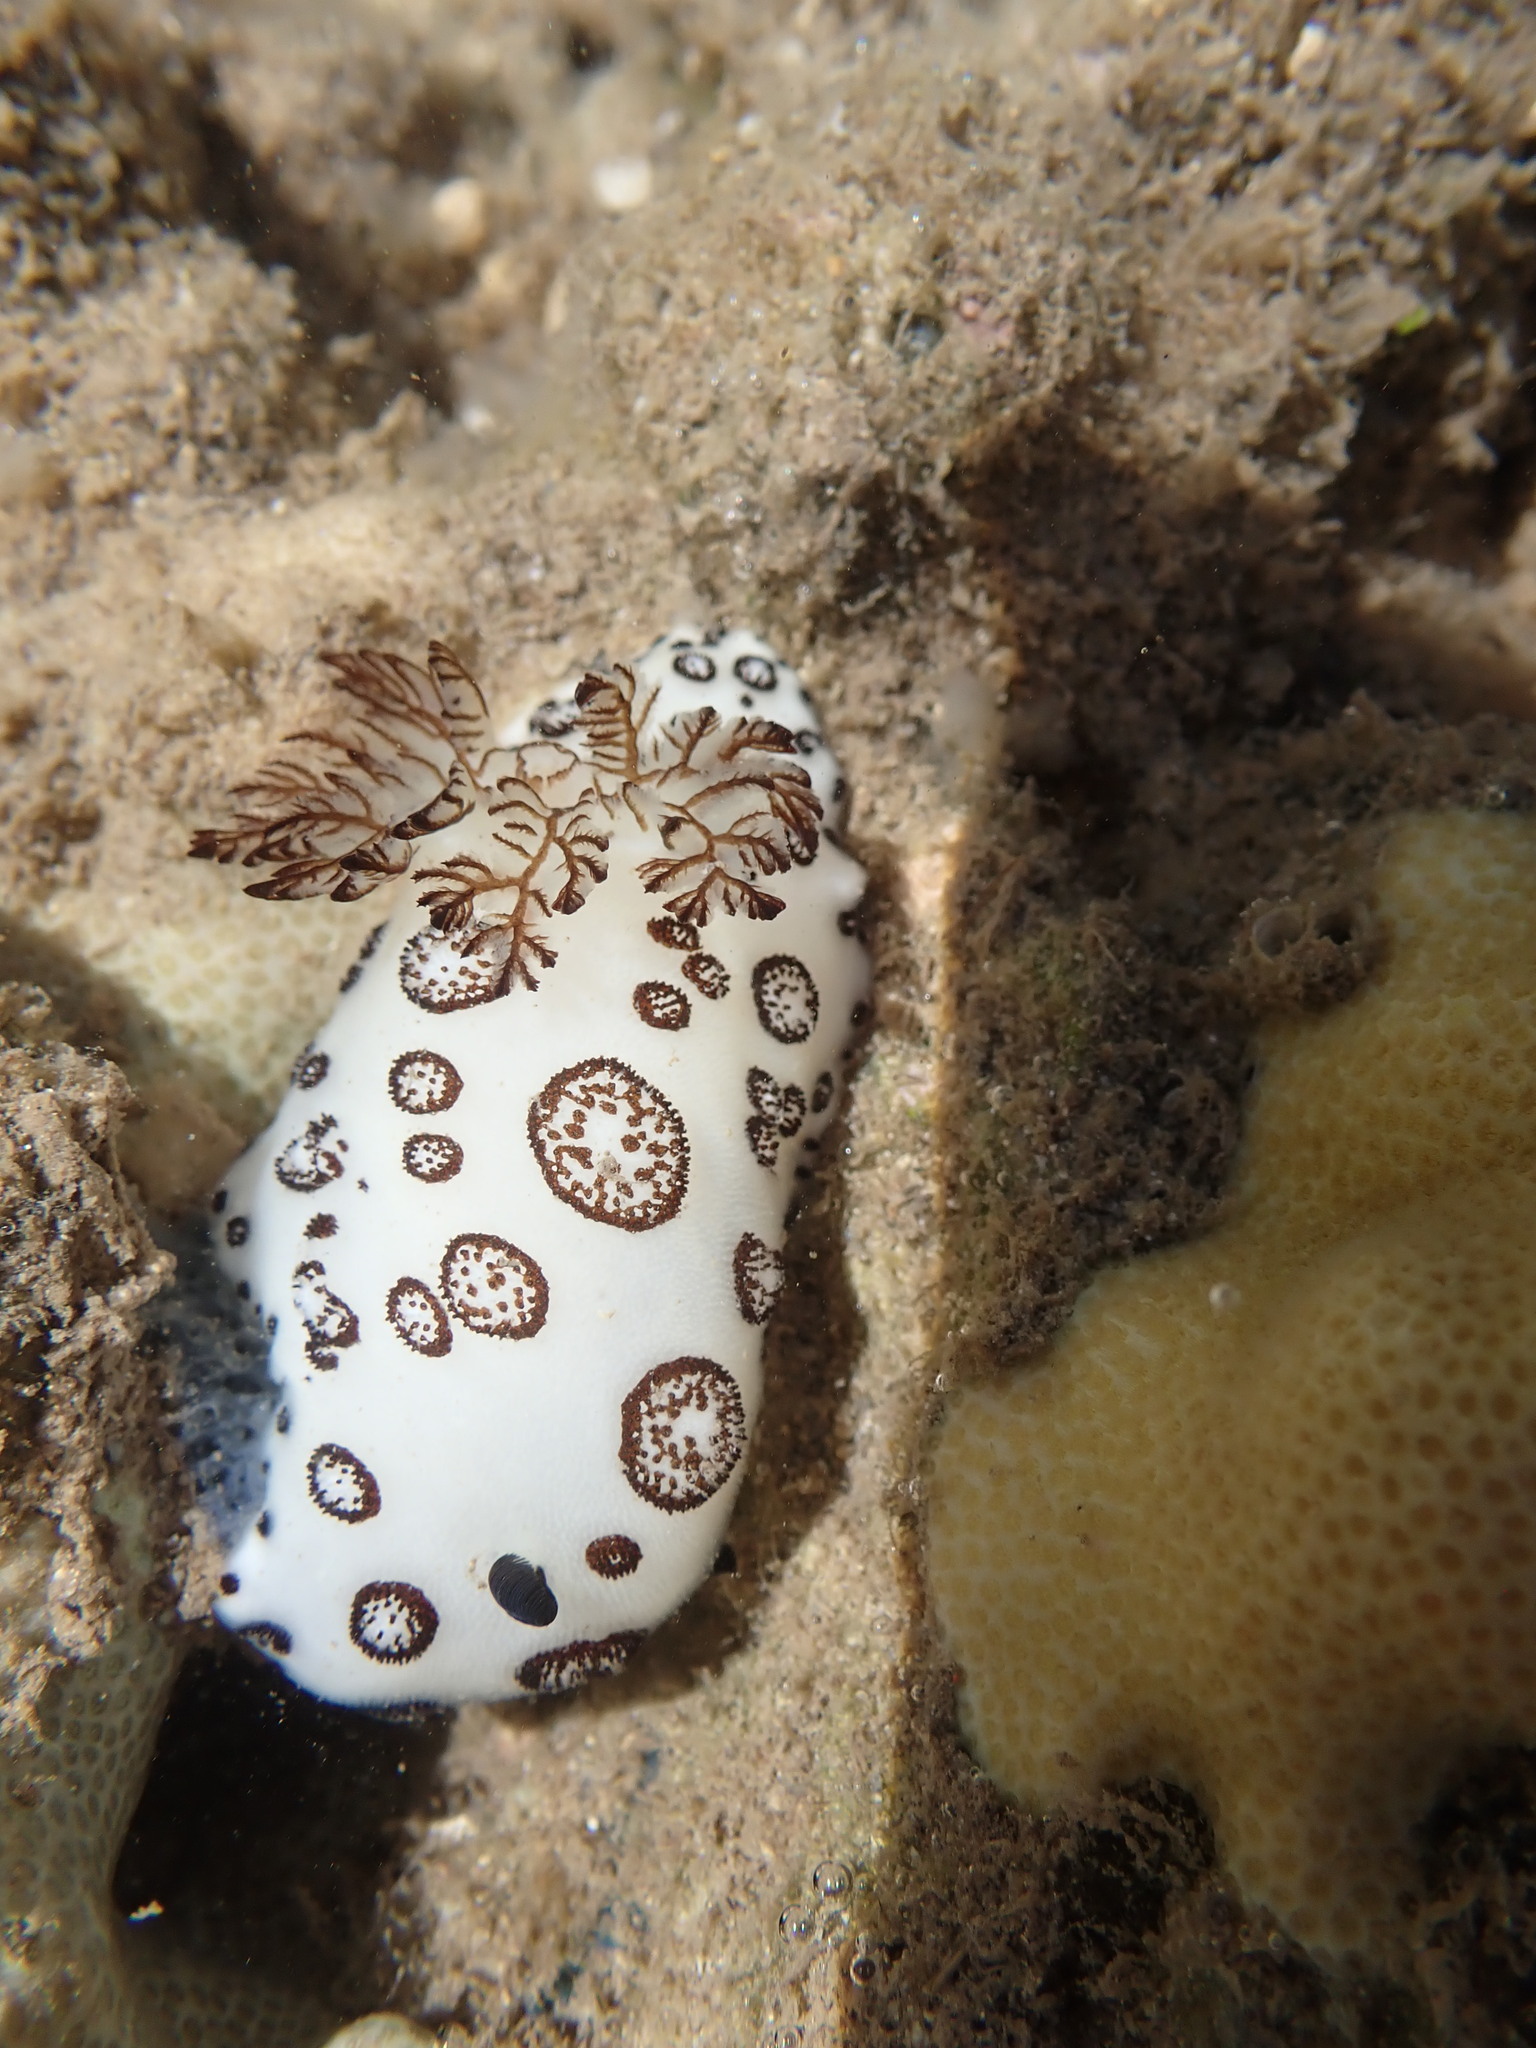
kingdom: Animalia
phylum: Mollusca
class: Gastropoda
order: Nudibranchia
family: Discodorididae
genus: Jorunna
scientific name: Jorunna funebris
